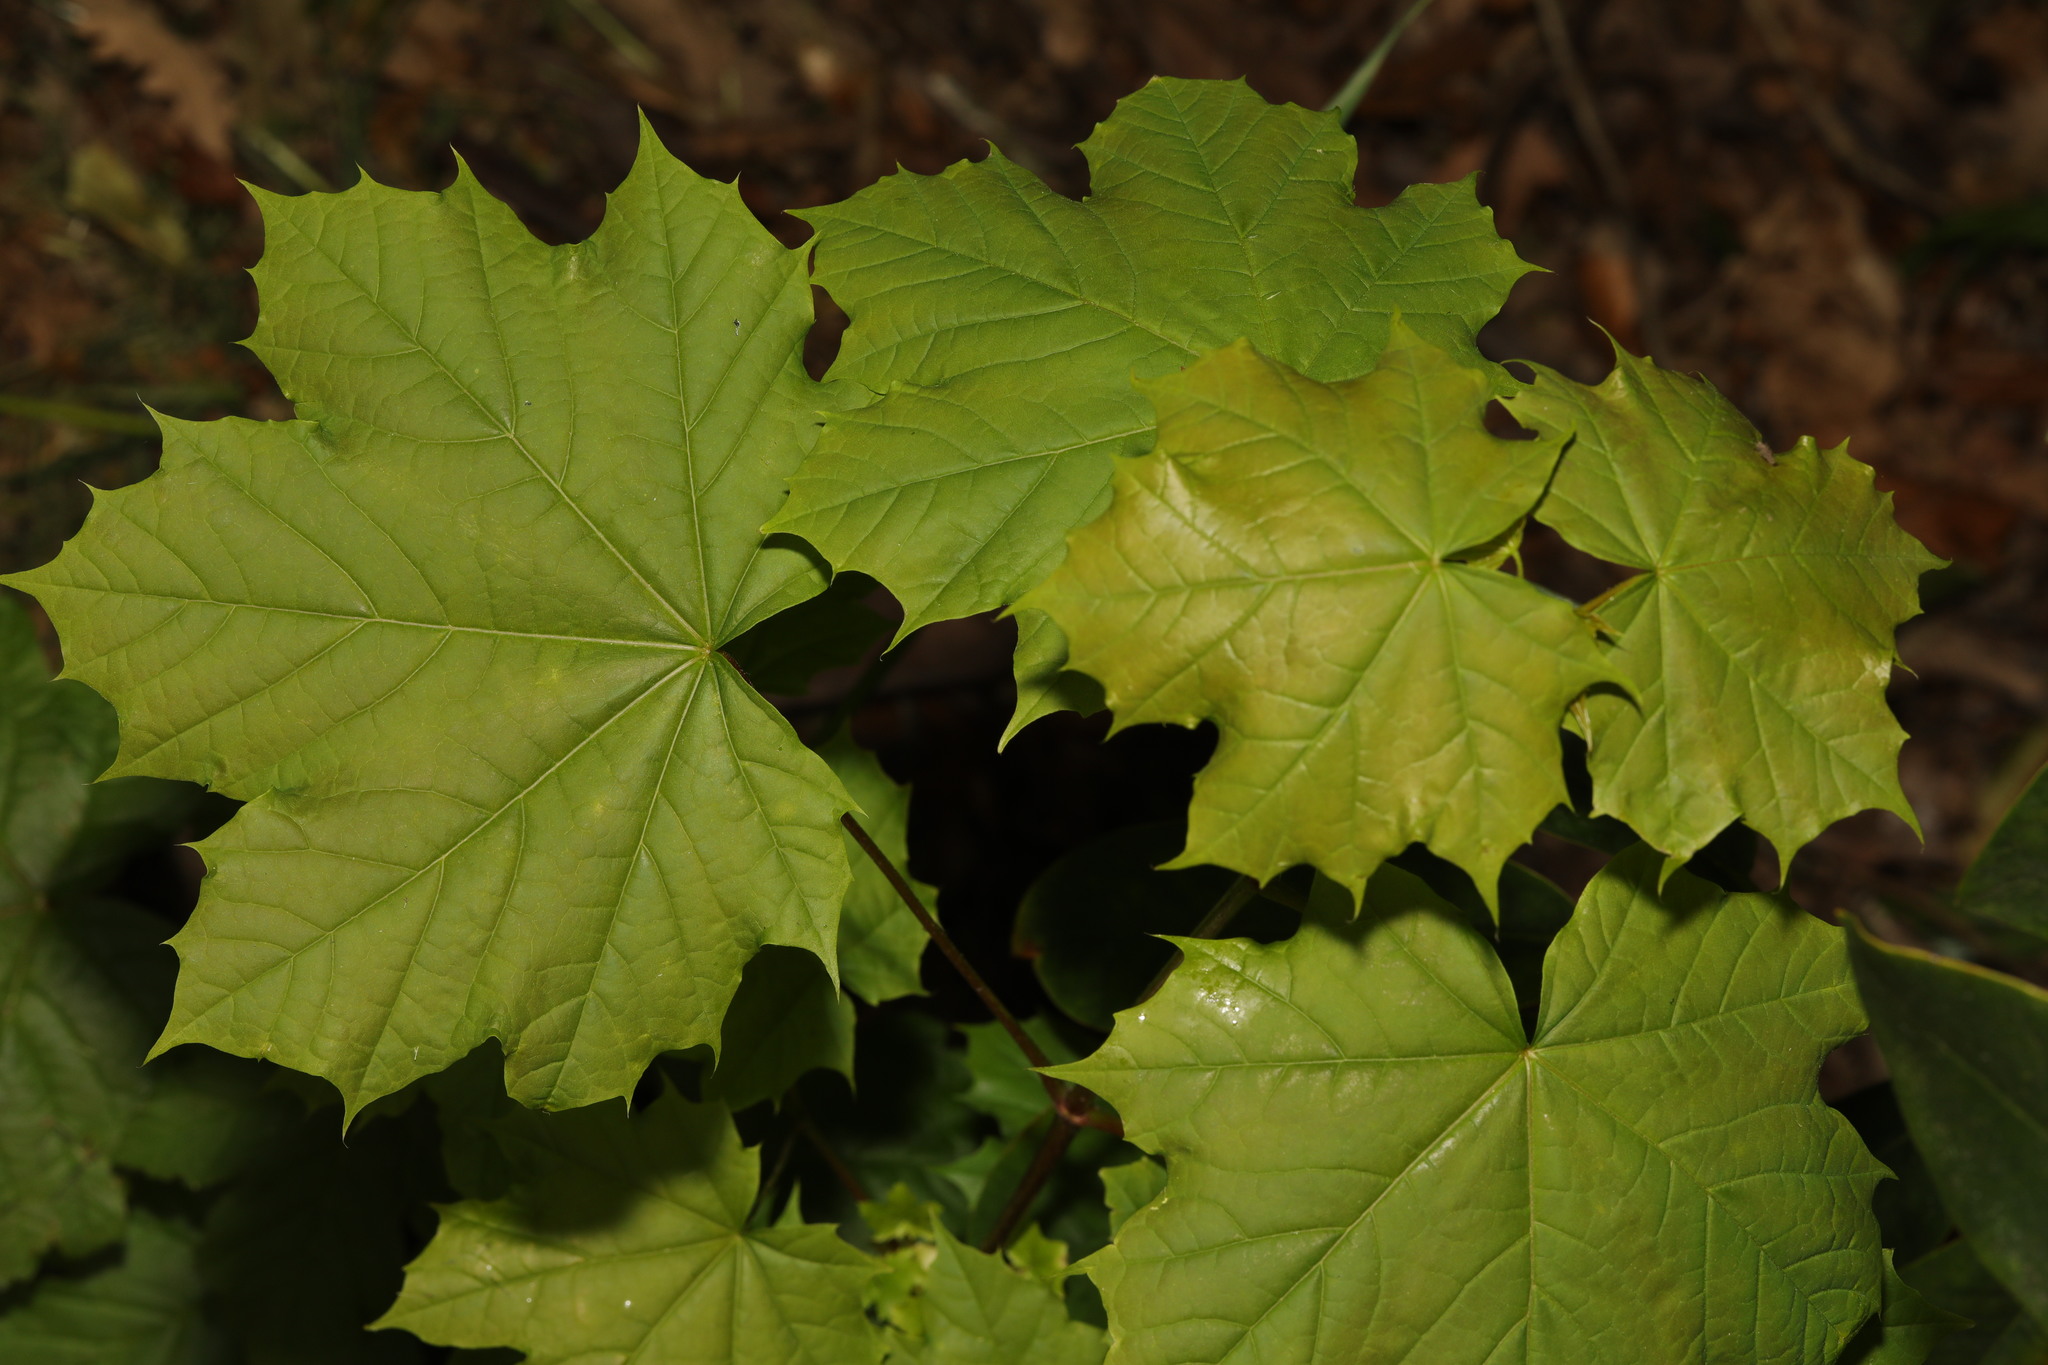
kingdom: Plantae
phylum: Tracheophyta
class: Magnoliopsida
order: Sapindales
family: Sapindaceae
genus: Acer
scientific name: Acer platanoides
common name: Norway maple
